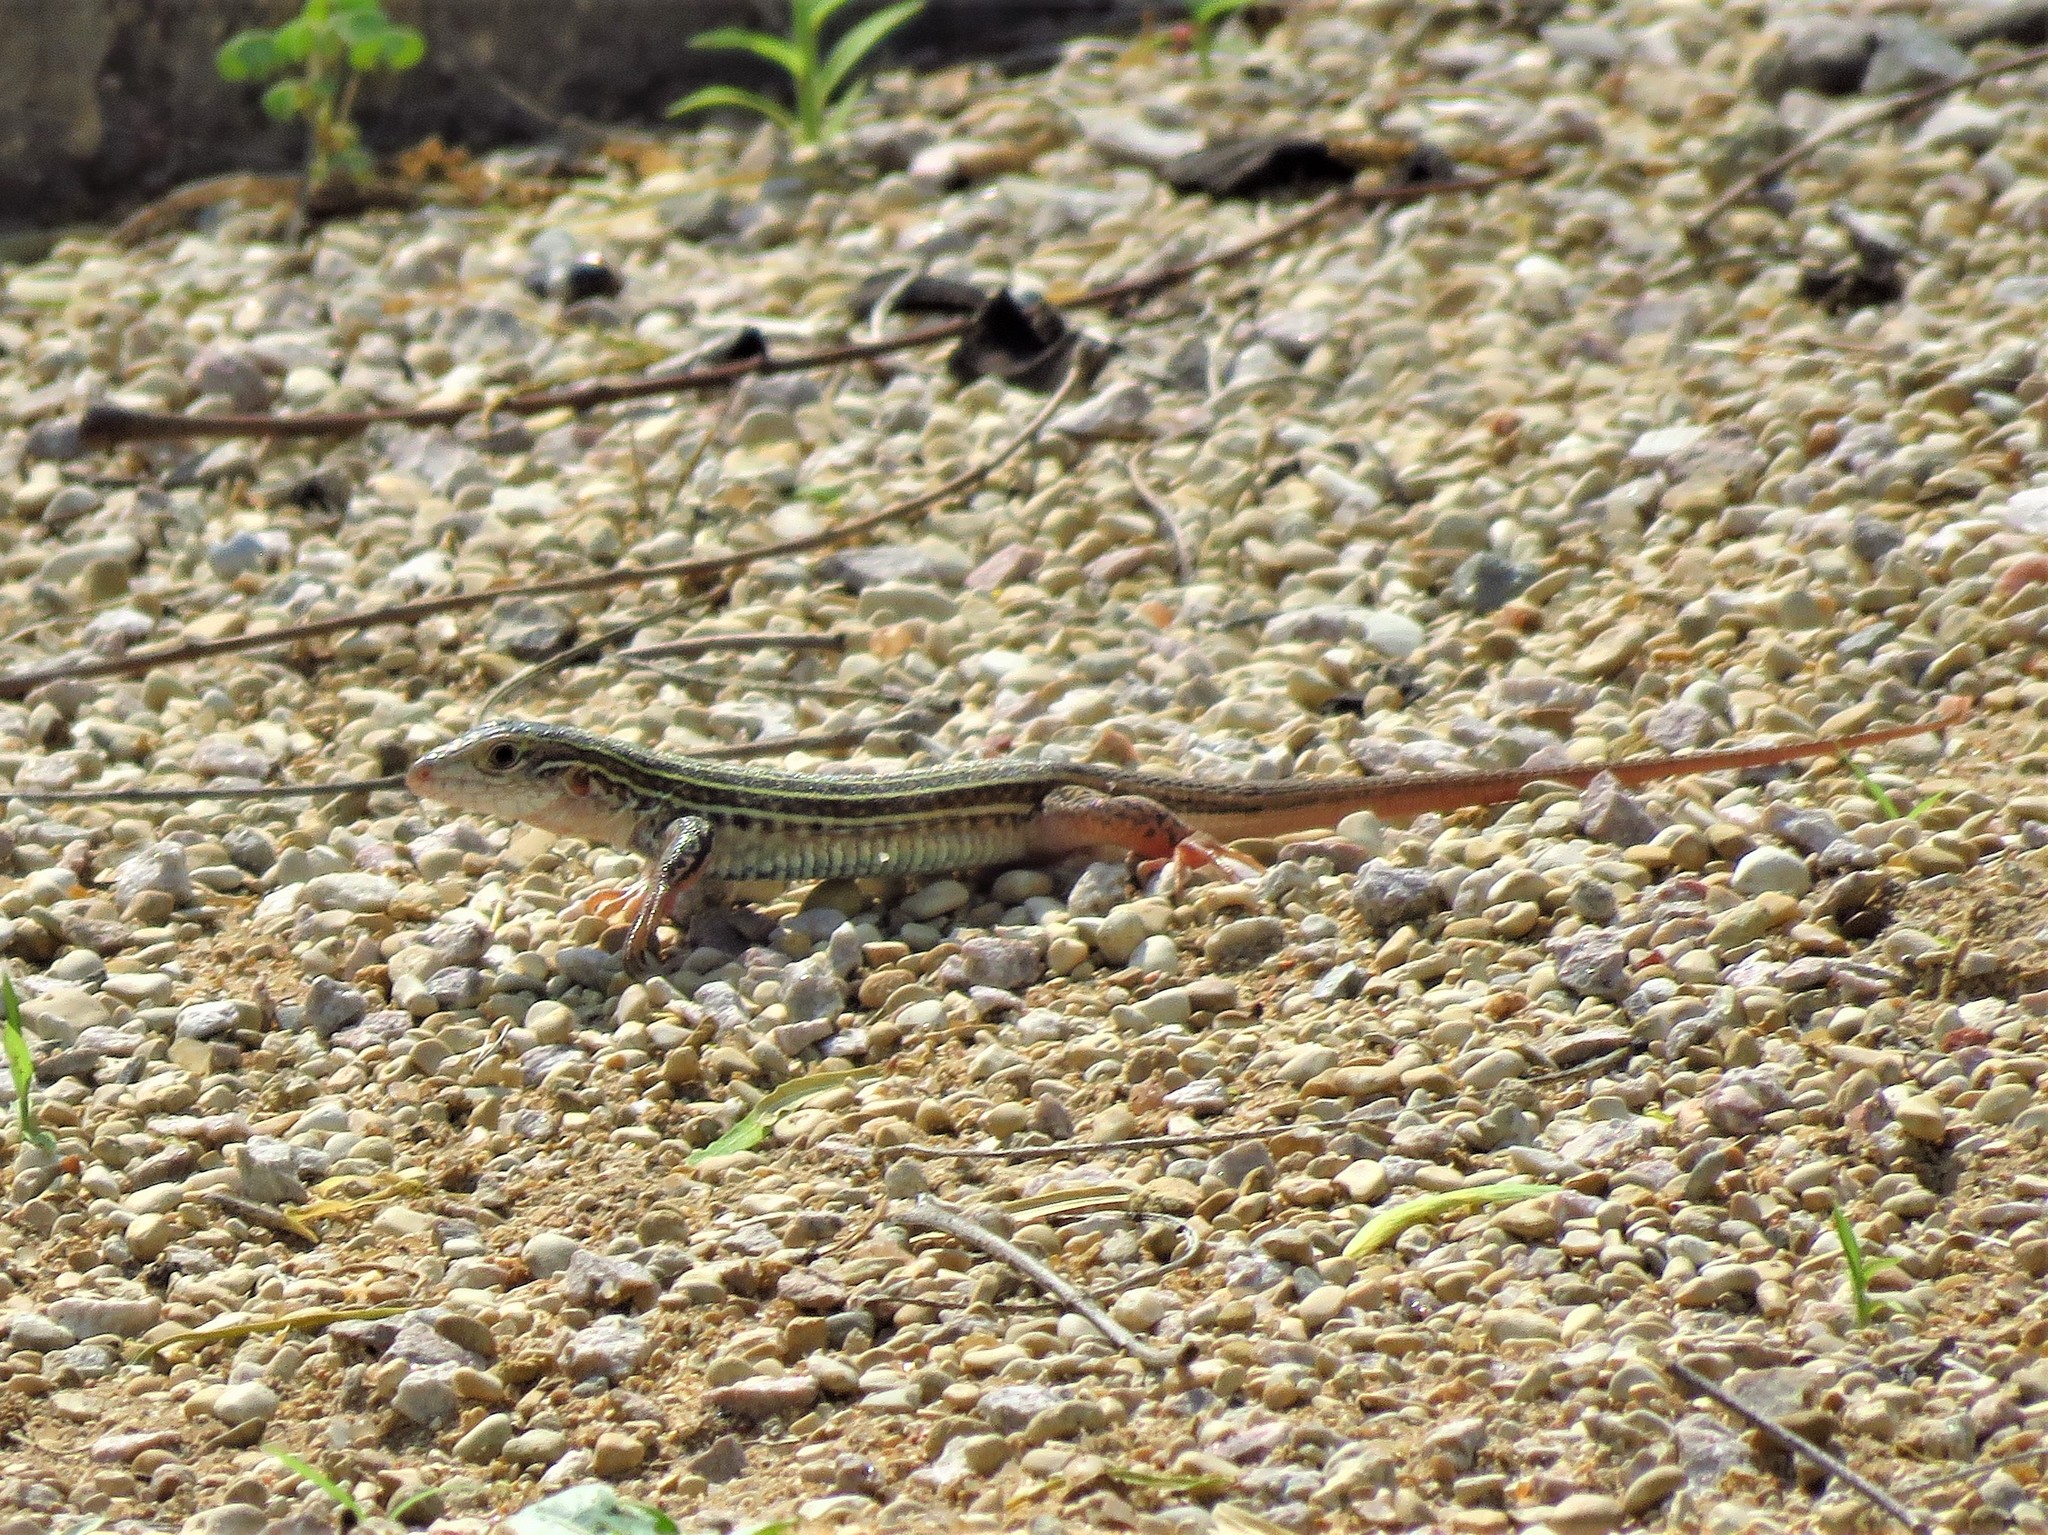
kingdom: Animalia
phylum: Chordata
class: Squamata
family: Teiidae
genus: Aspidoscelis
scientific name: Aspidoscelis gularis
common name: Eastern spotted whiptail
